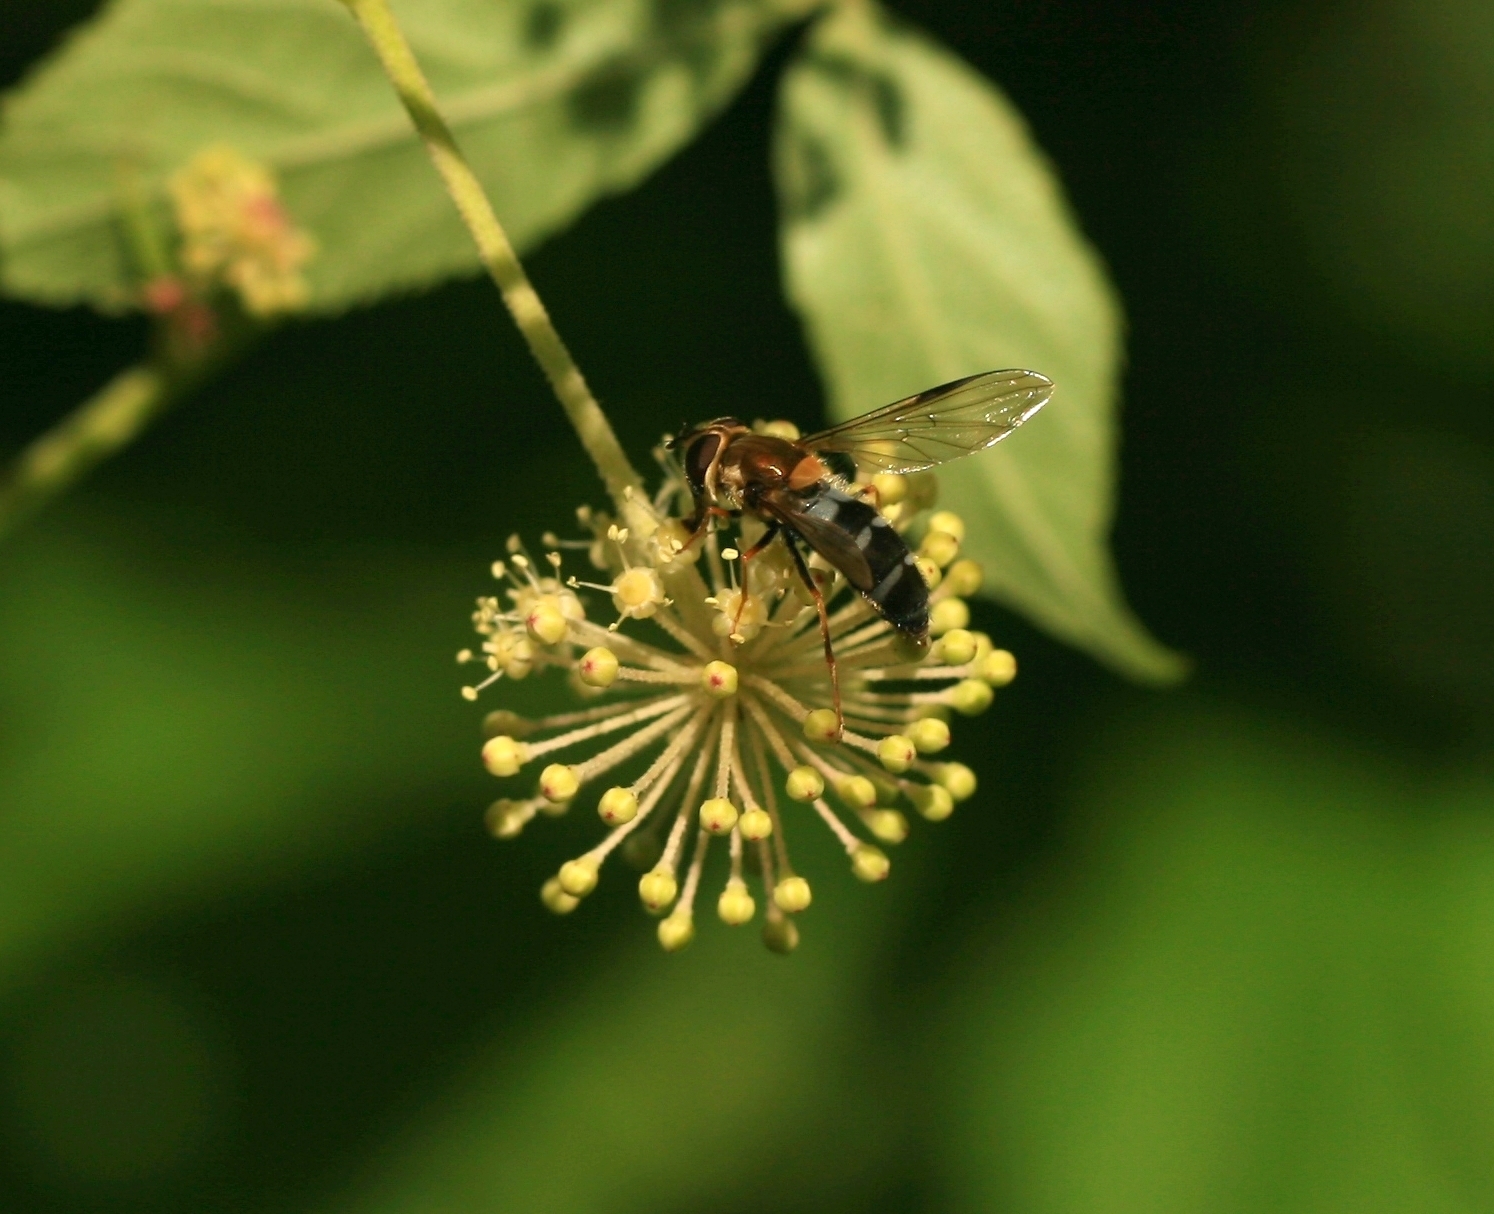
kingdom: Animalia
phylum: Arthropoda
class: Insecta
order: Diptera
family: Syrphidae
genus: Leucozona
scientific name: Leucozona glaucia
